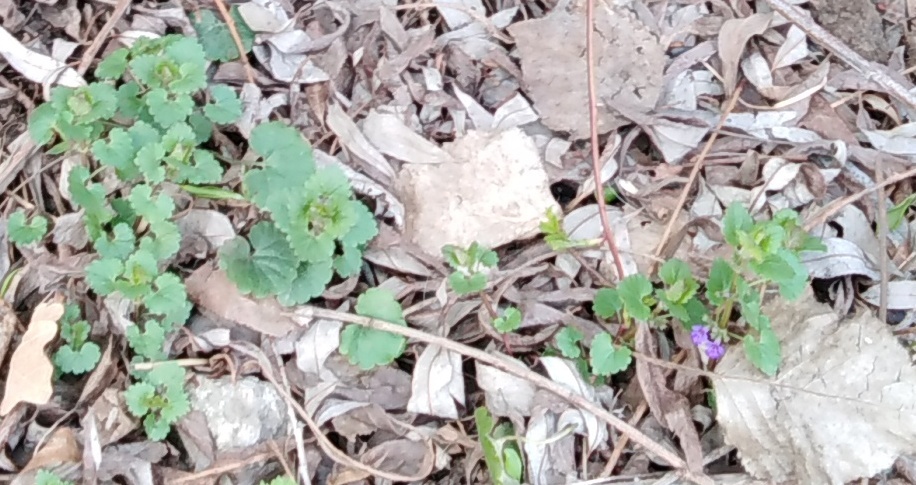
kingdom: Plantae
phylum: Tracheophyta
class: Magnoliopsida
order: Lamiales
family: Lamiaceae
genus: Glechoma
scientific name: Glechoma hederacea
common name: Ground ivy
